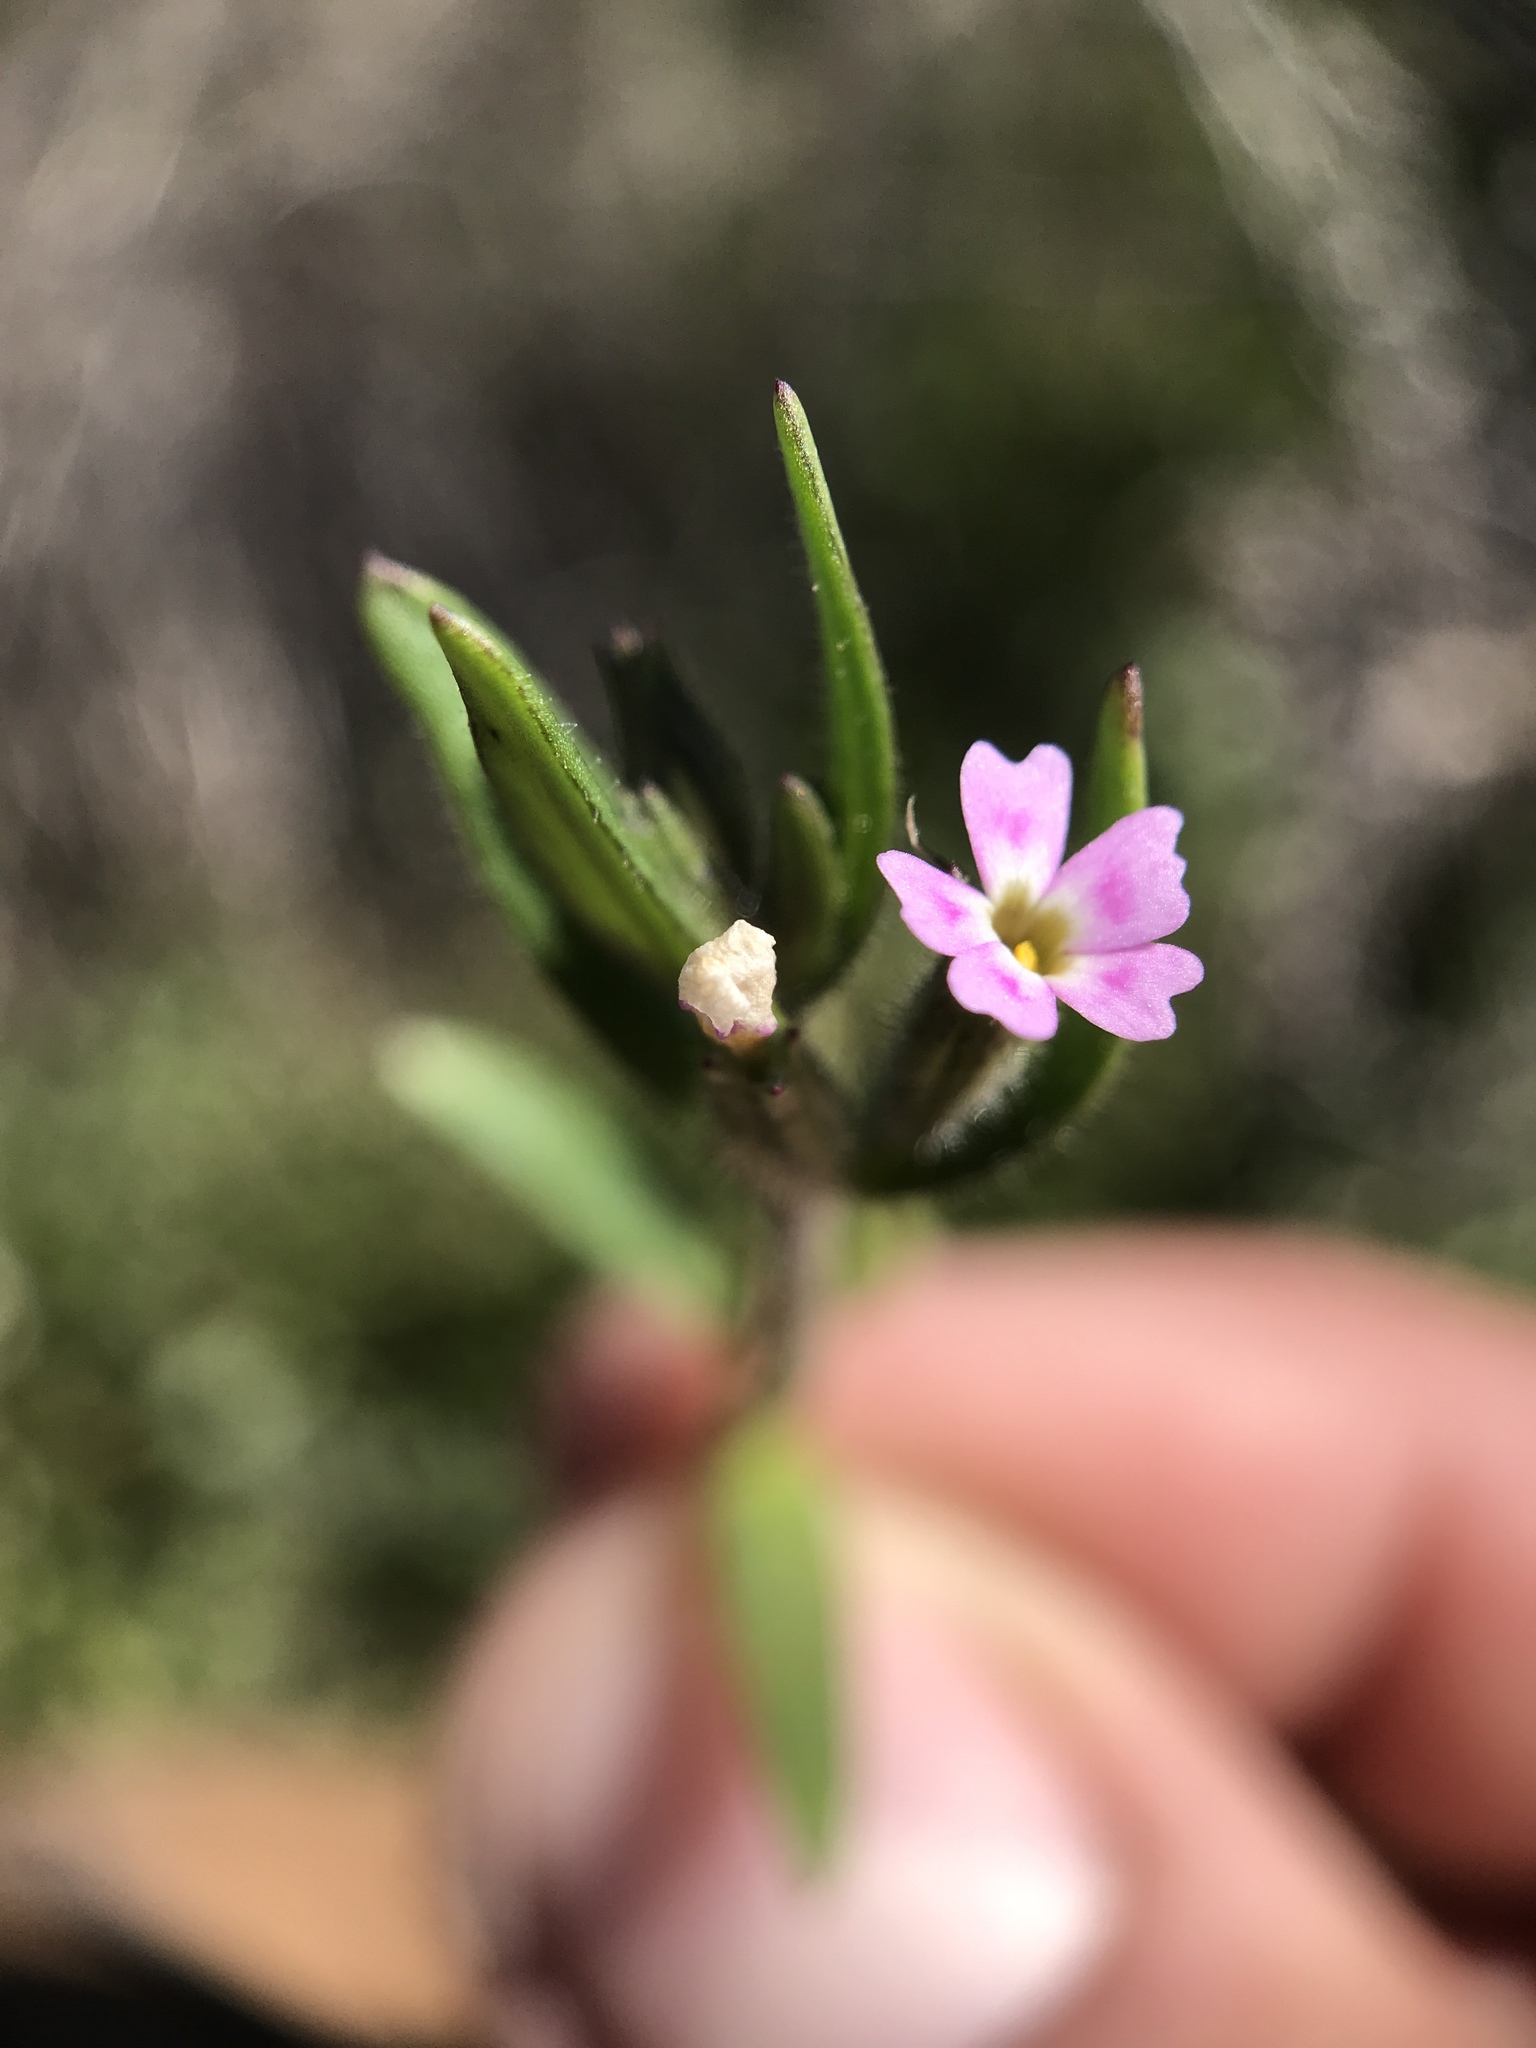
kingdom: Plantae
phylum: Tracheophyta
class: Magnoliopsida
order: Ericales
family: Polemoniaceae
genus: Phlox
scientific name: Phlox gracilis
